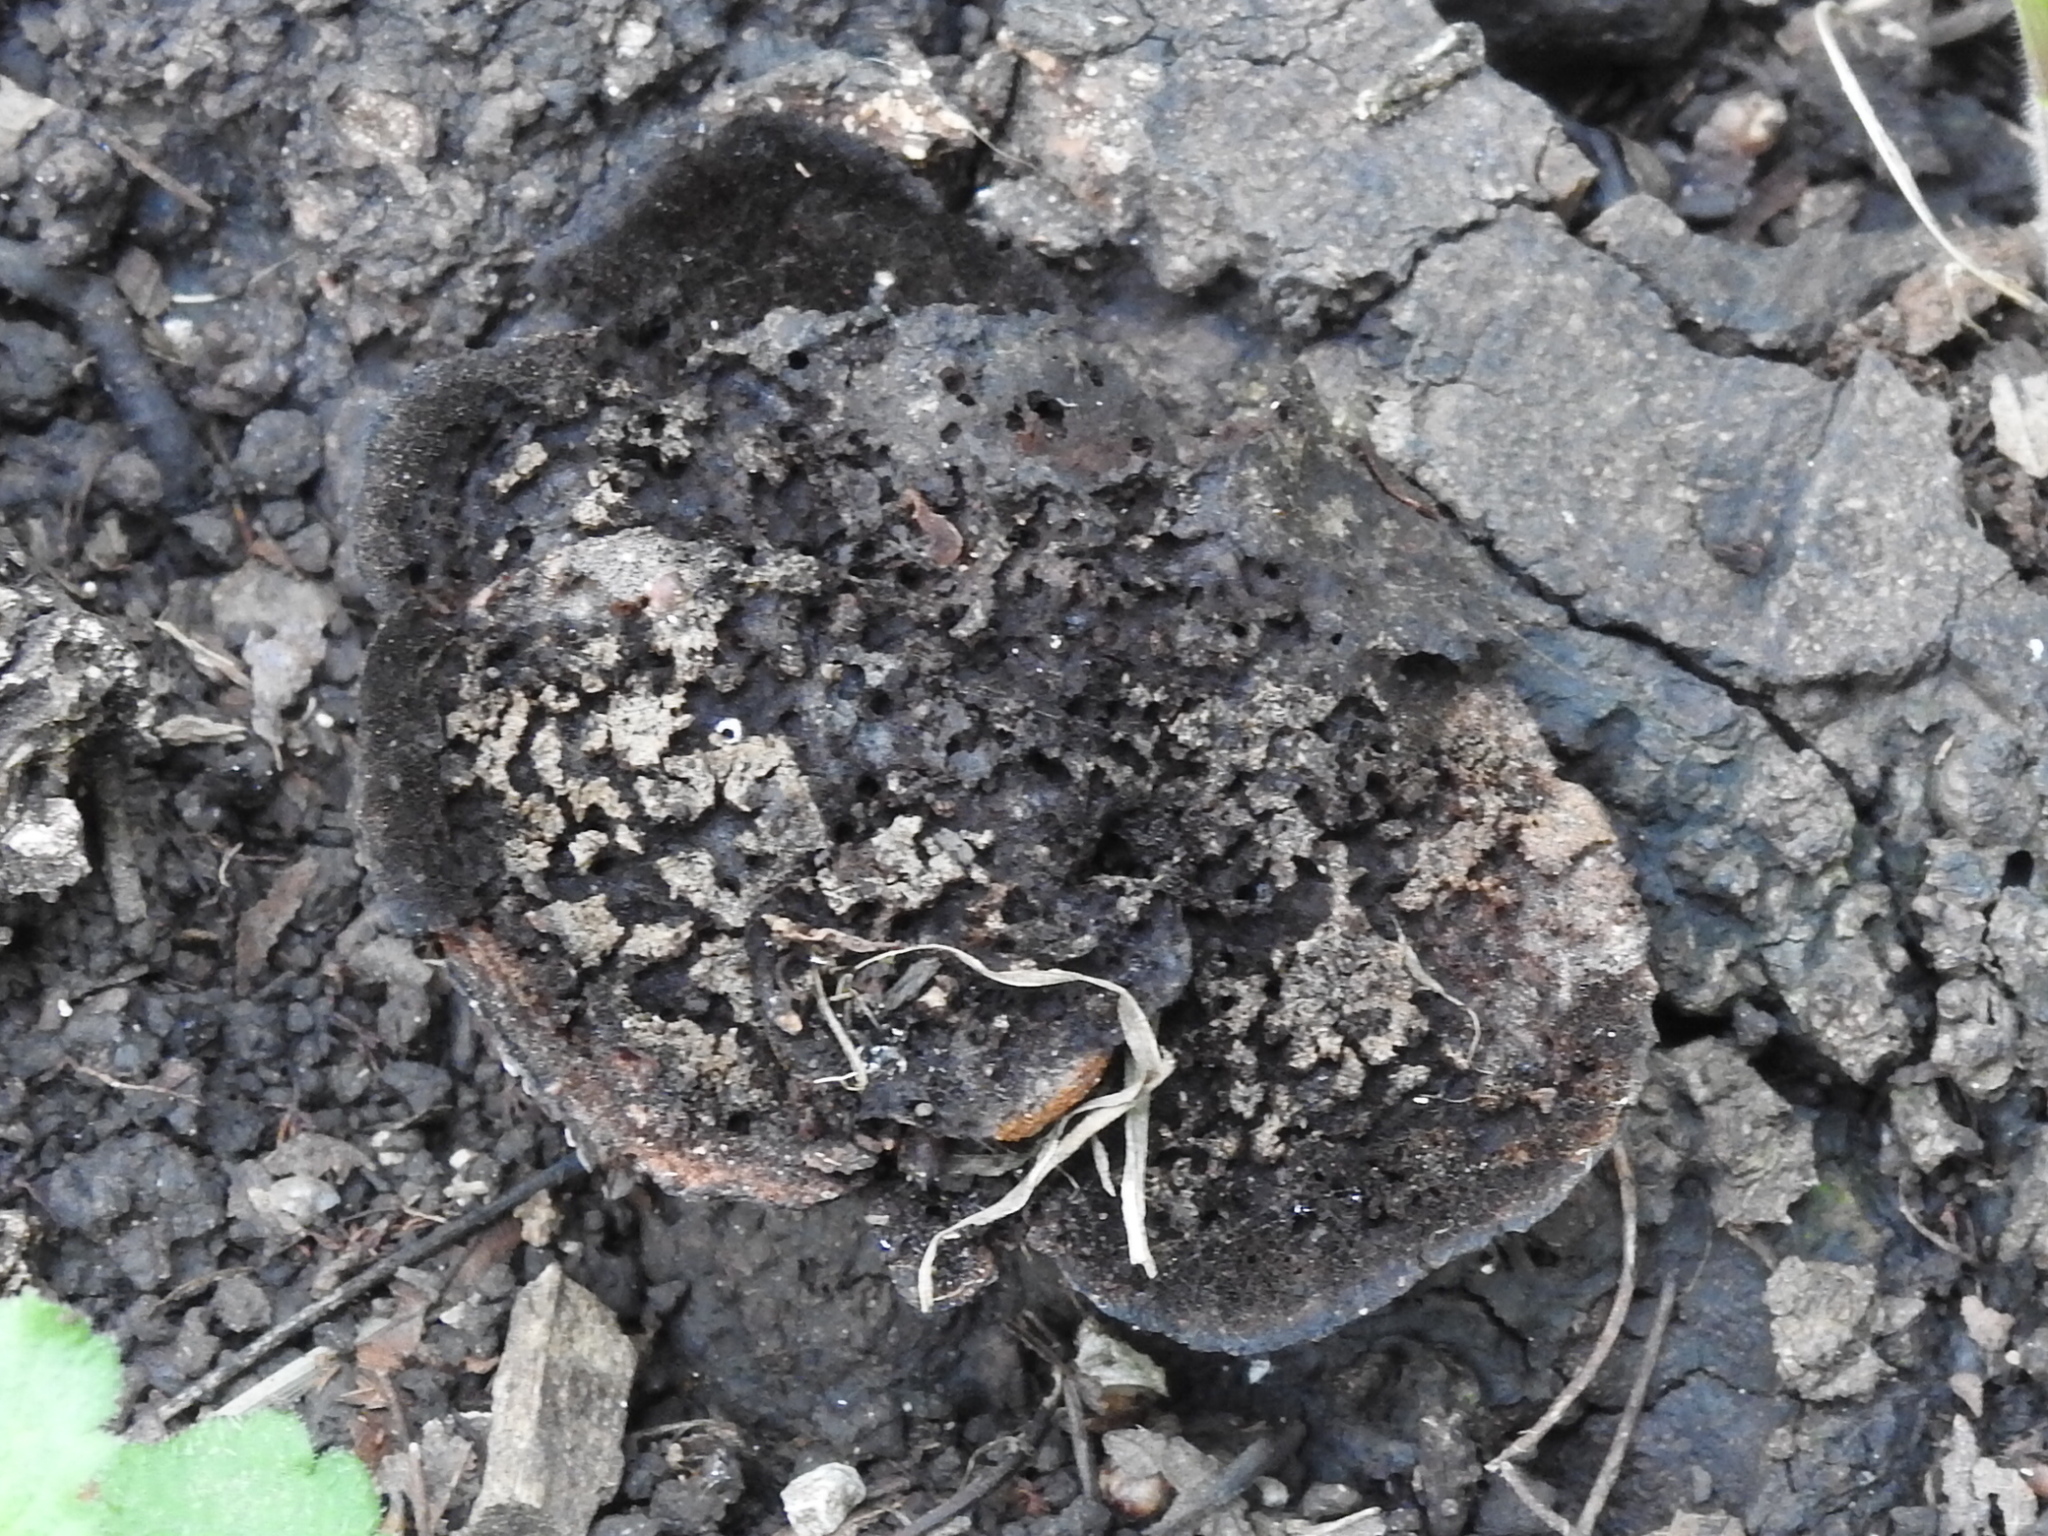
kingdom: Fungi
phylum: Basidiomycota
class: Agaricomycetes
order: Polyporales
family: Cerrenaceae
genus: Cerrena
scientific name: Cerrena hydnoides
